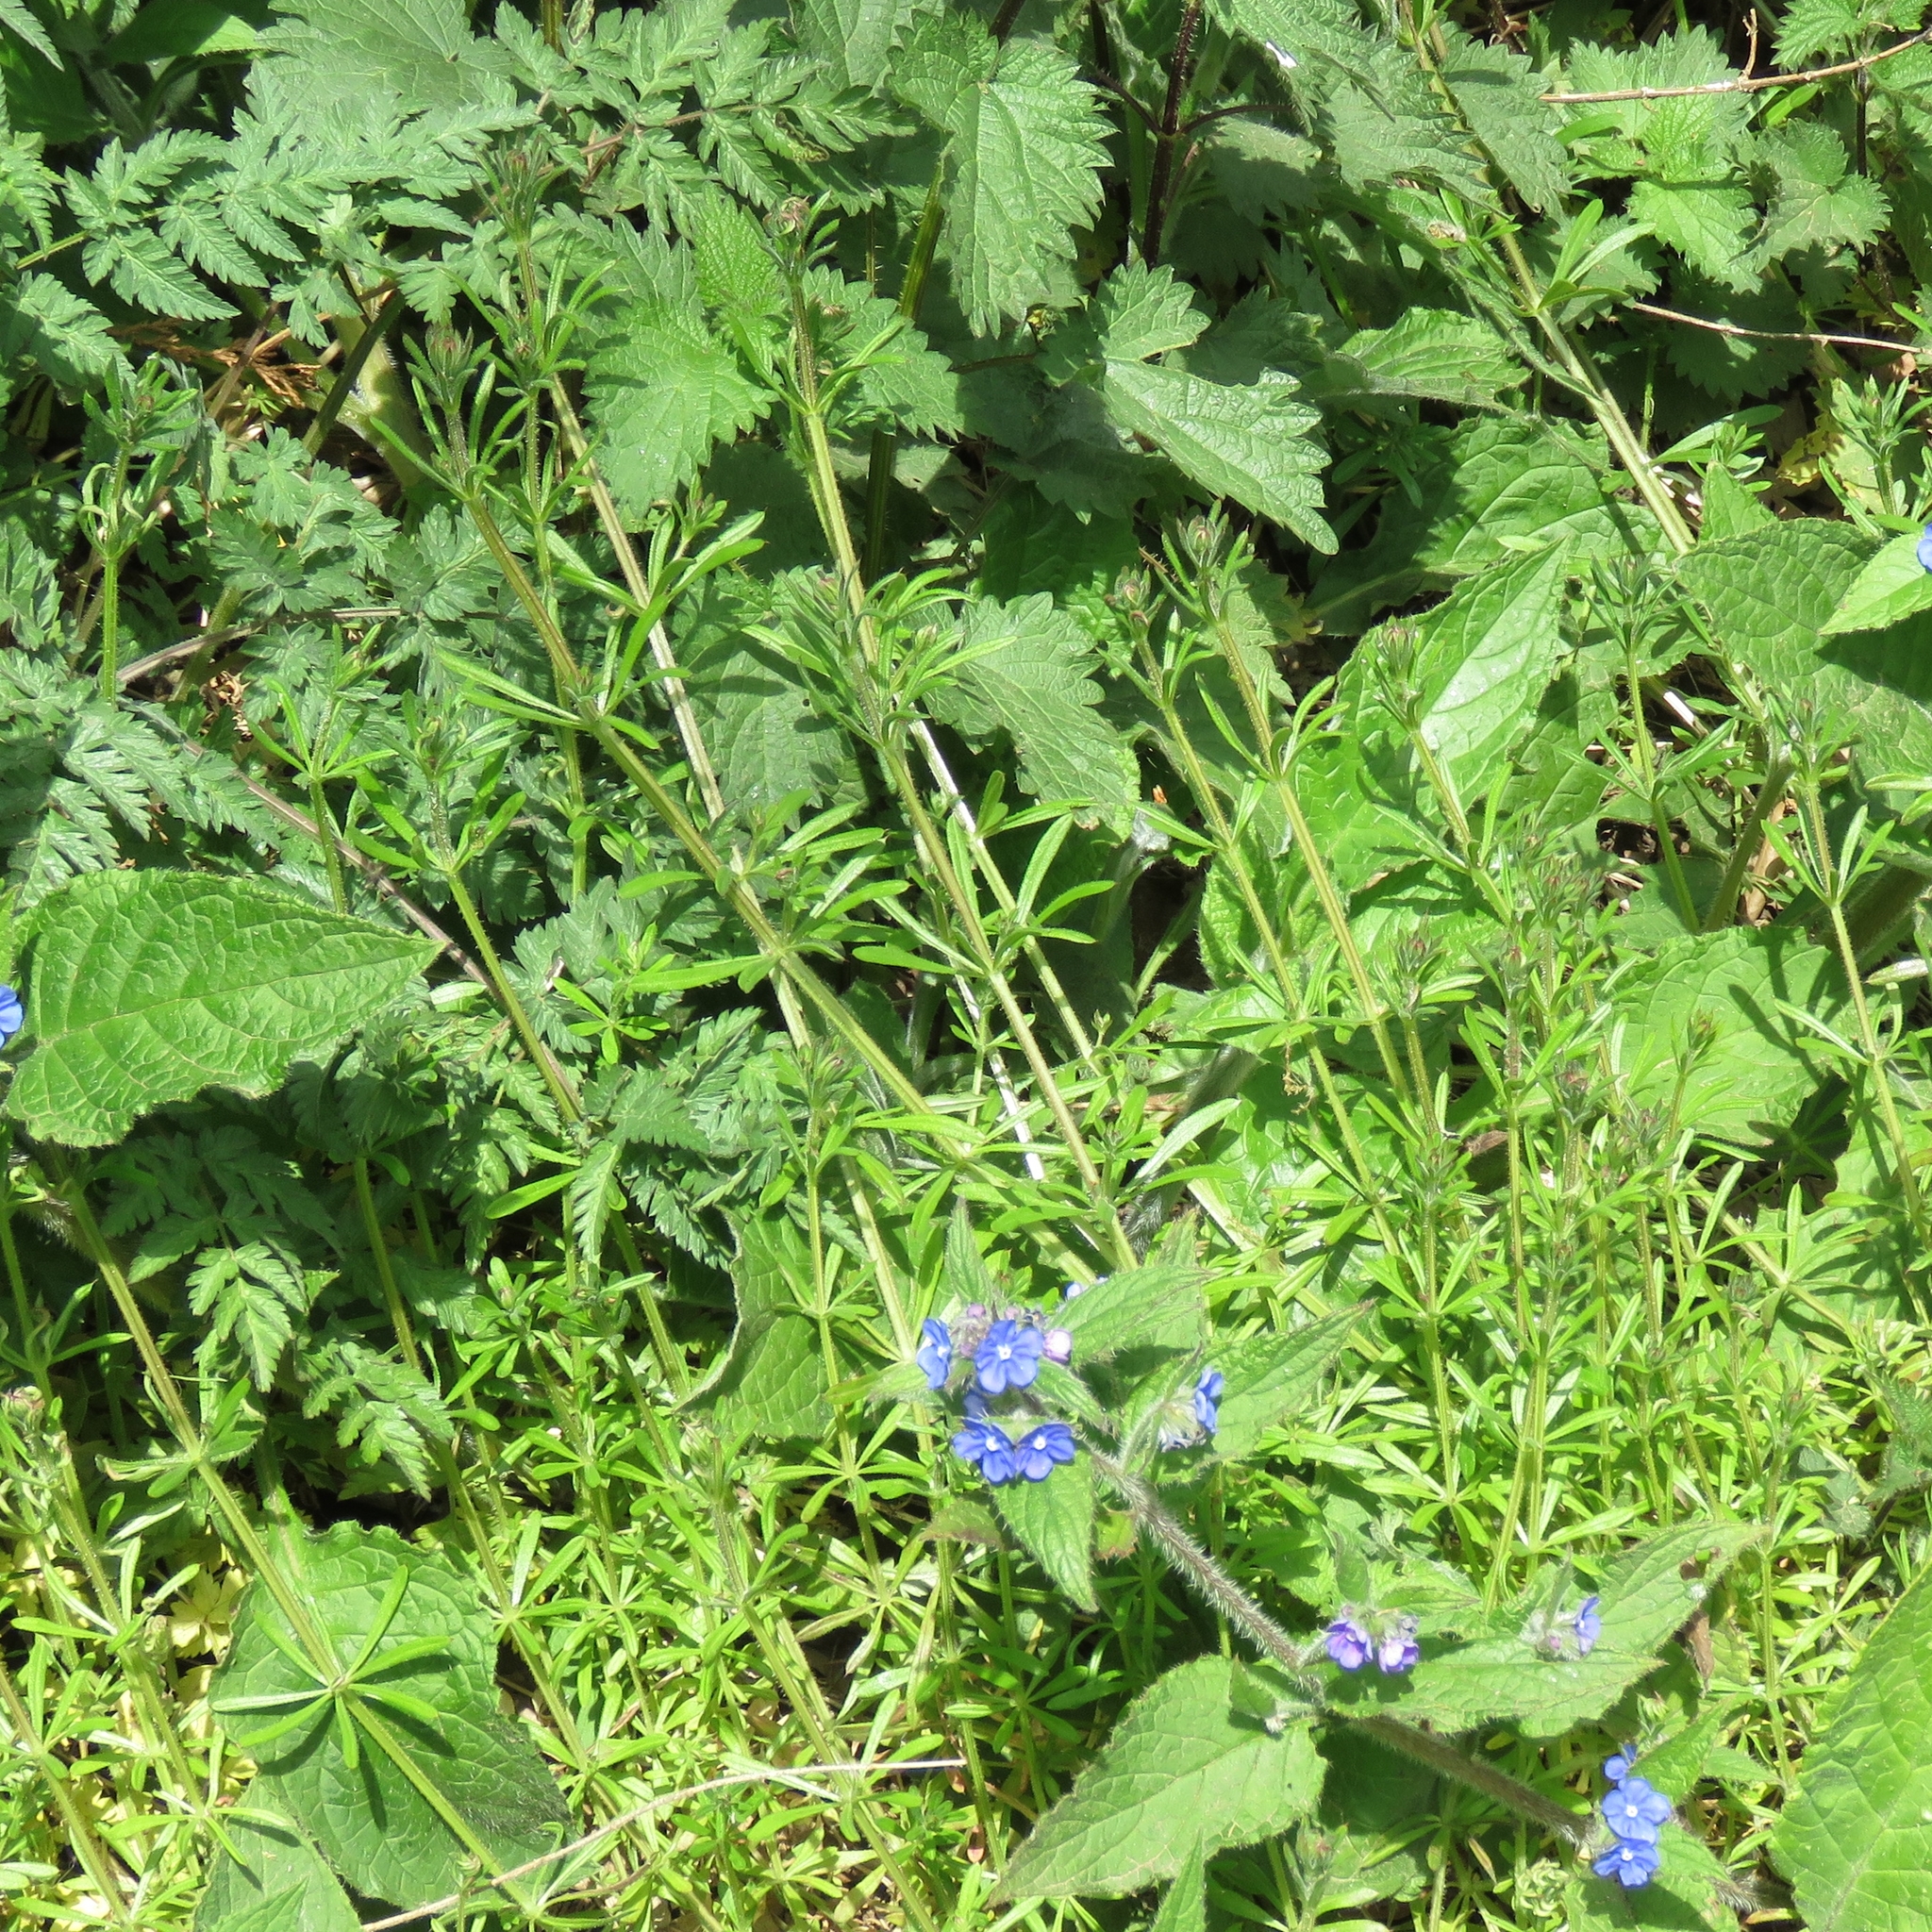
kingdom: Plantae
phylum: Tracheophyta
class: Magnoliopsida
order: Gentianales
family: Rubiaceae
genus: Galium
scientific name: Galium aparine
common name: Cleavers
